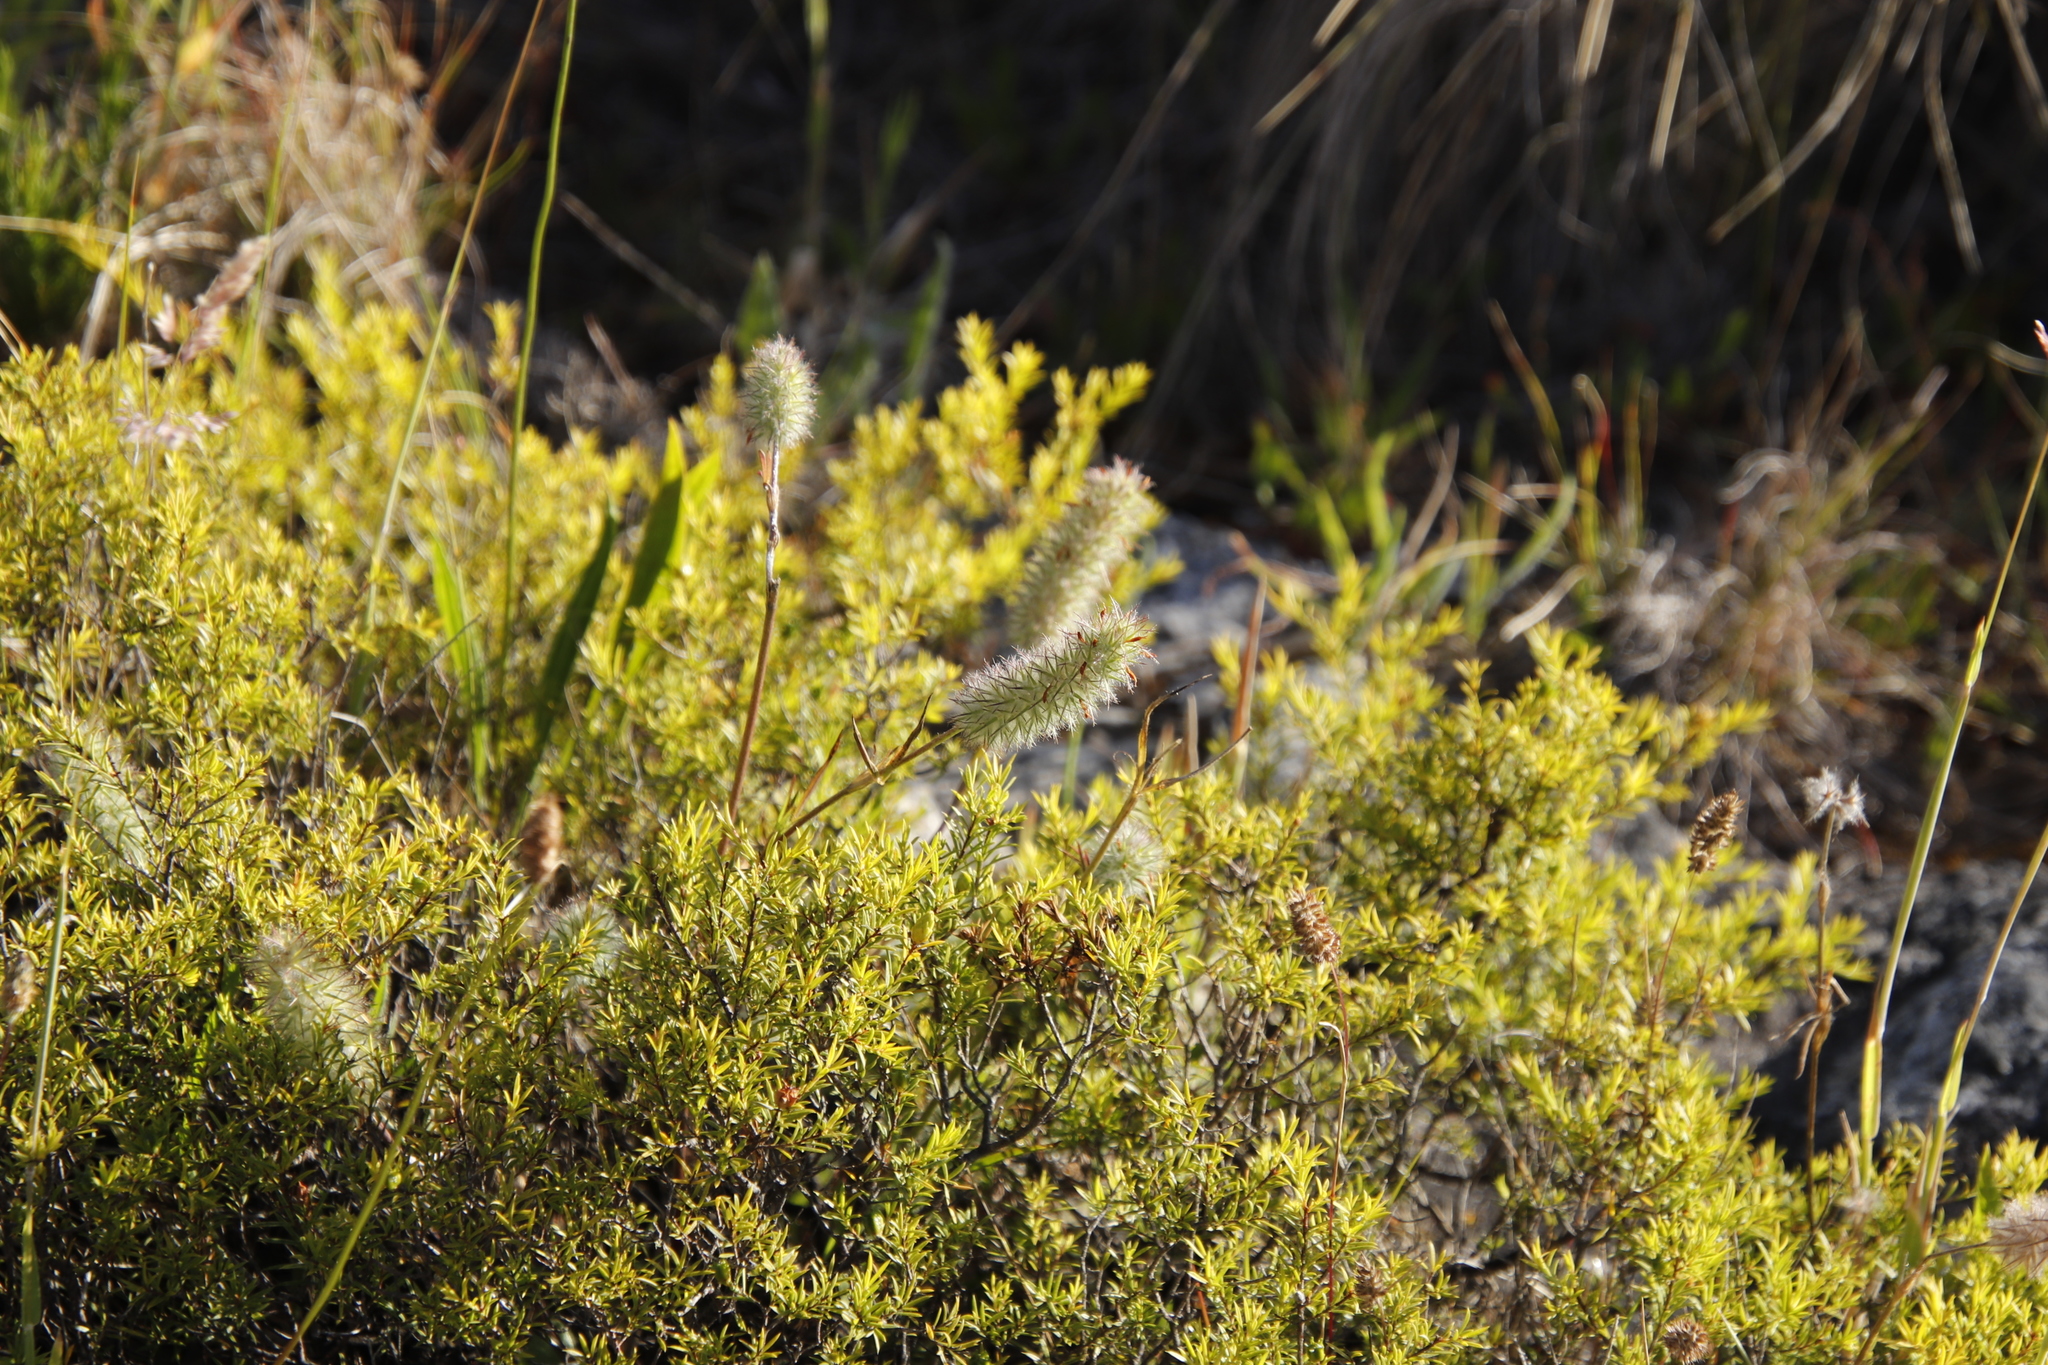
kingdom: Plantae
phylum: Tracheophyta
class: Magnoliopsida
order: Fabales
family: Fabaceae
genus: Trifolium
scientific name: Trifolium angustifolium
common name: Narrow clover
